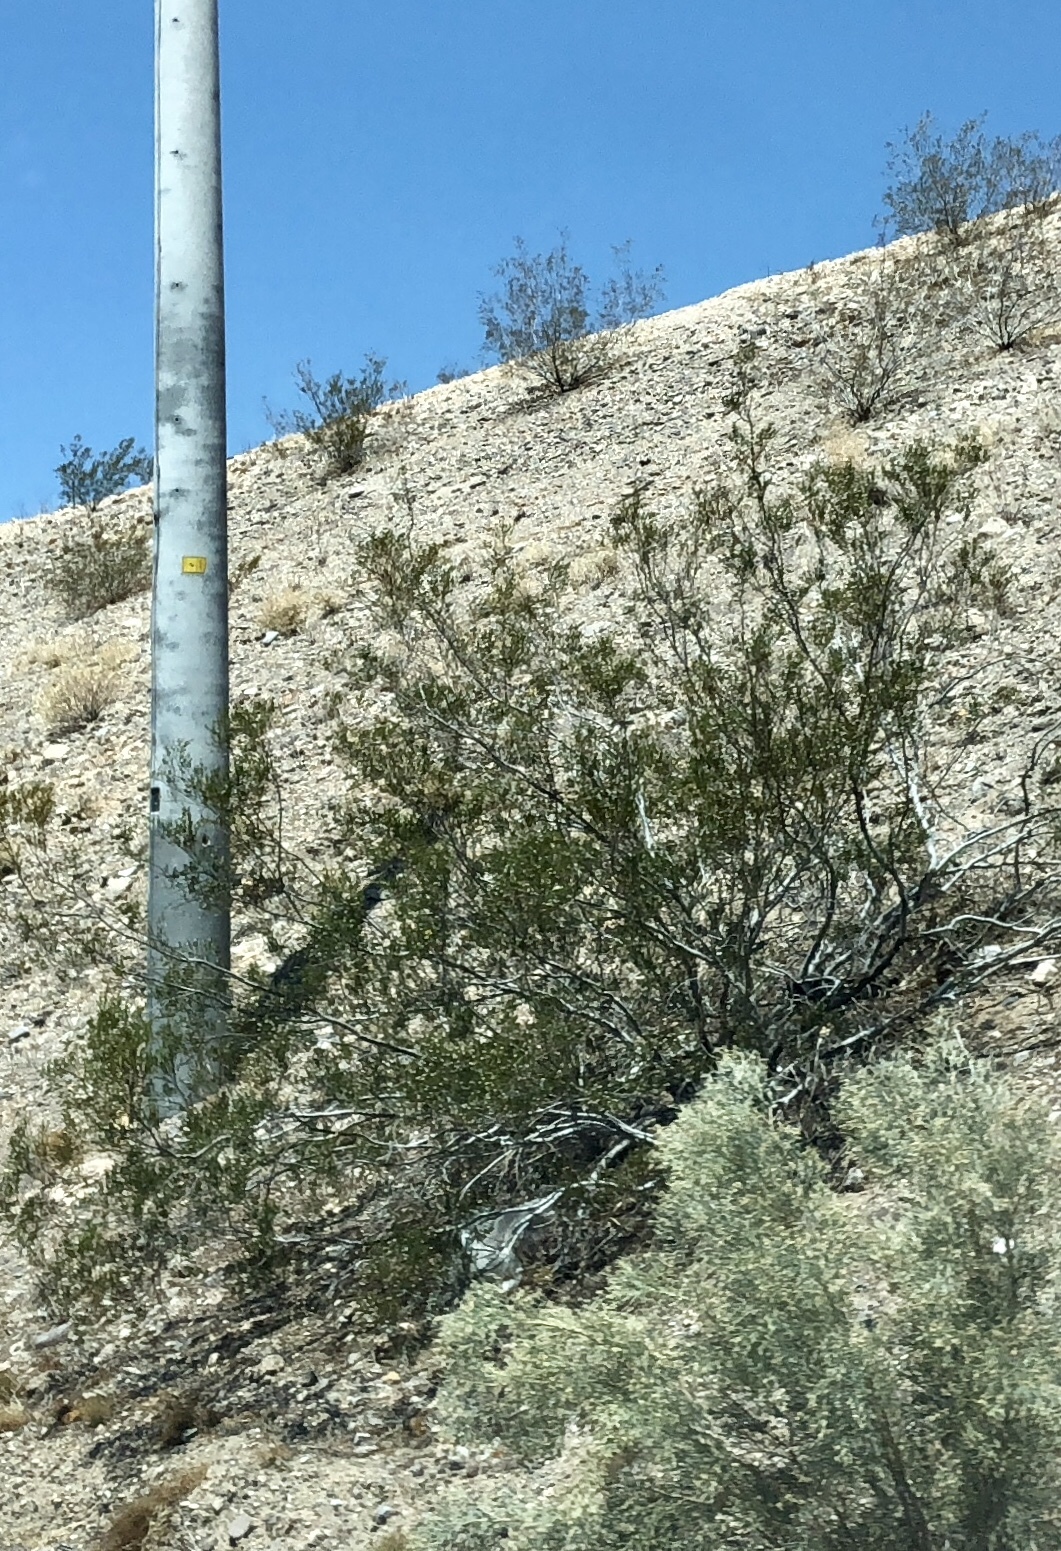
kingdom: Plantae
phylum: Tracheophyta
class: Magnoliopsida
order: Zygophyllales
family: Zygophyllaceae
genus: Larrea
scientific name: Larrea tridentata
